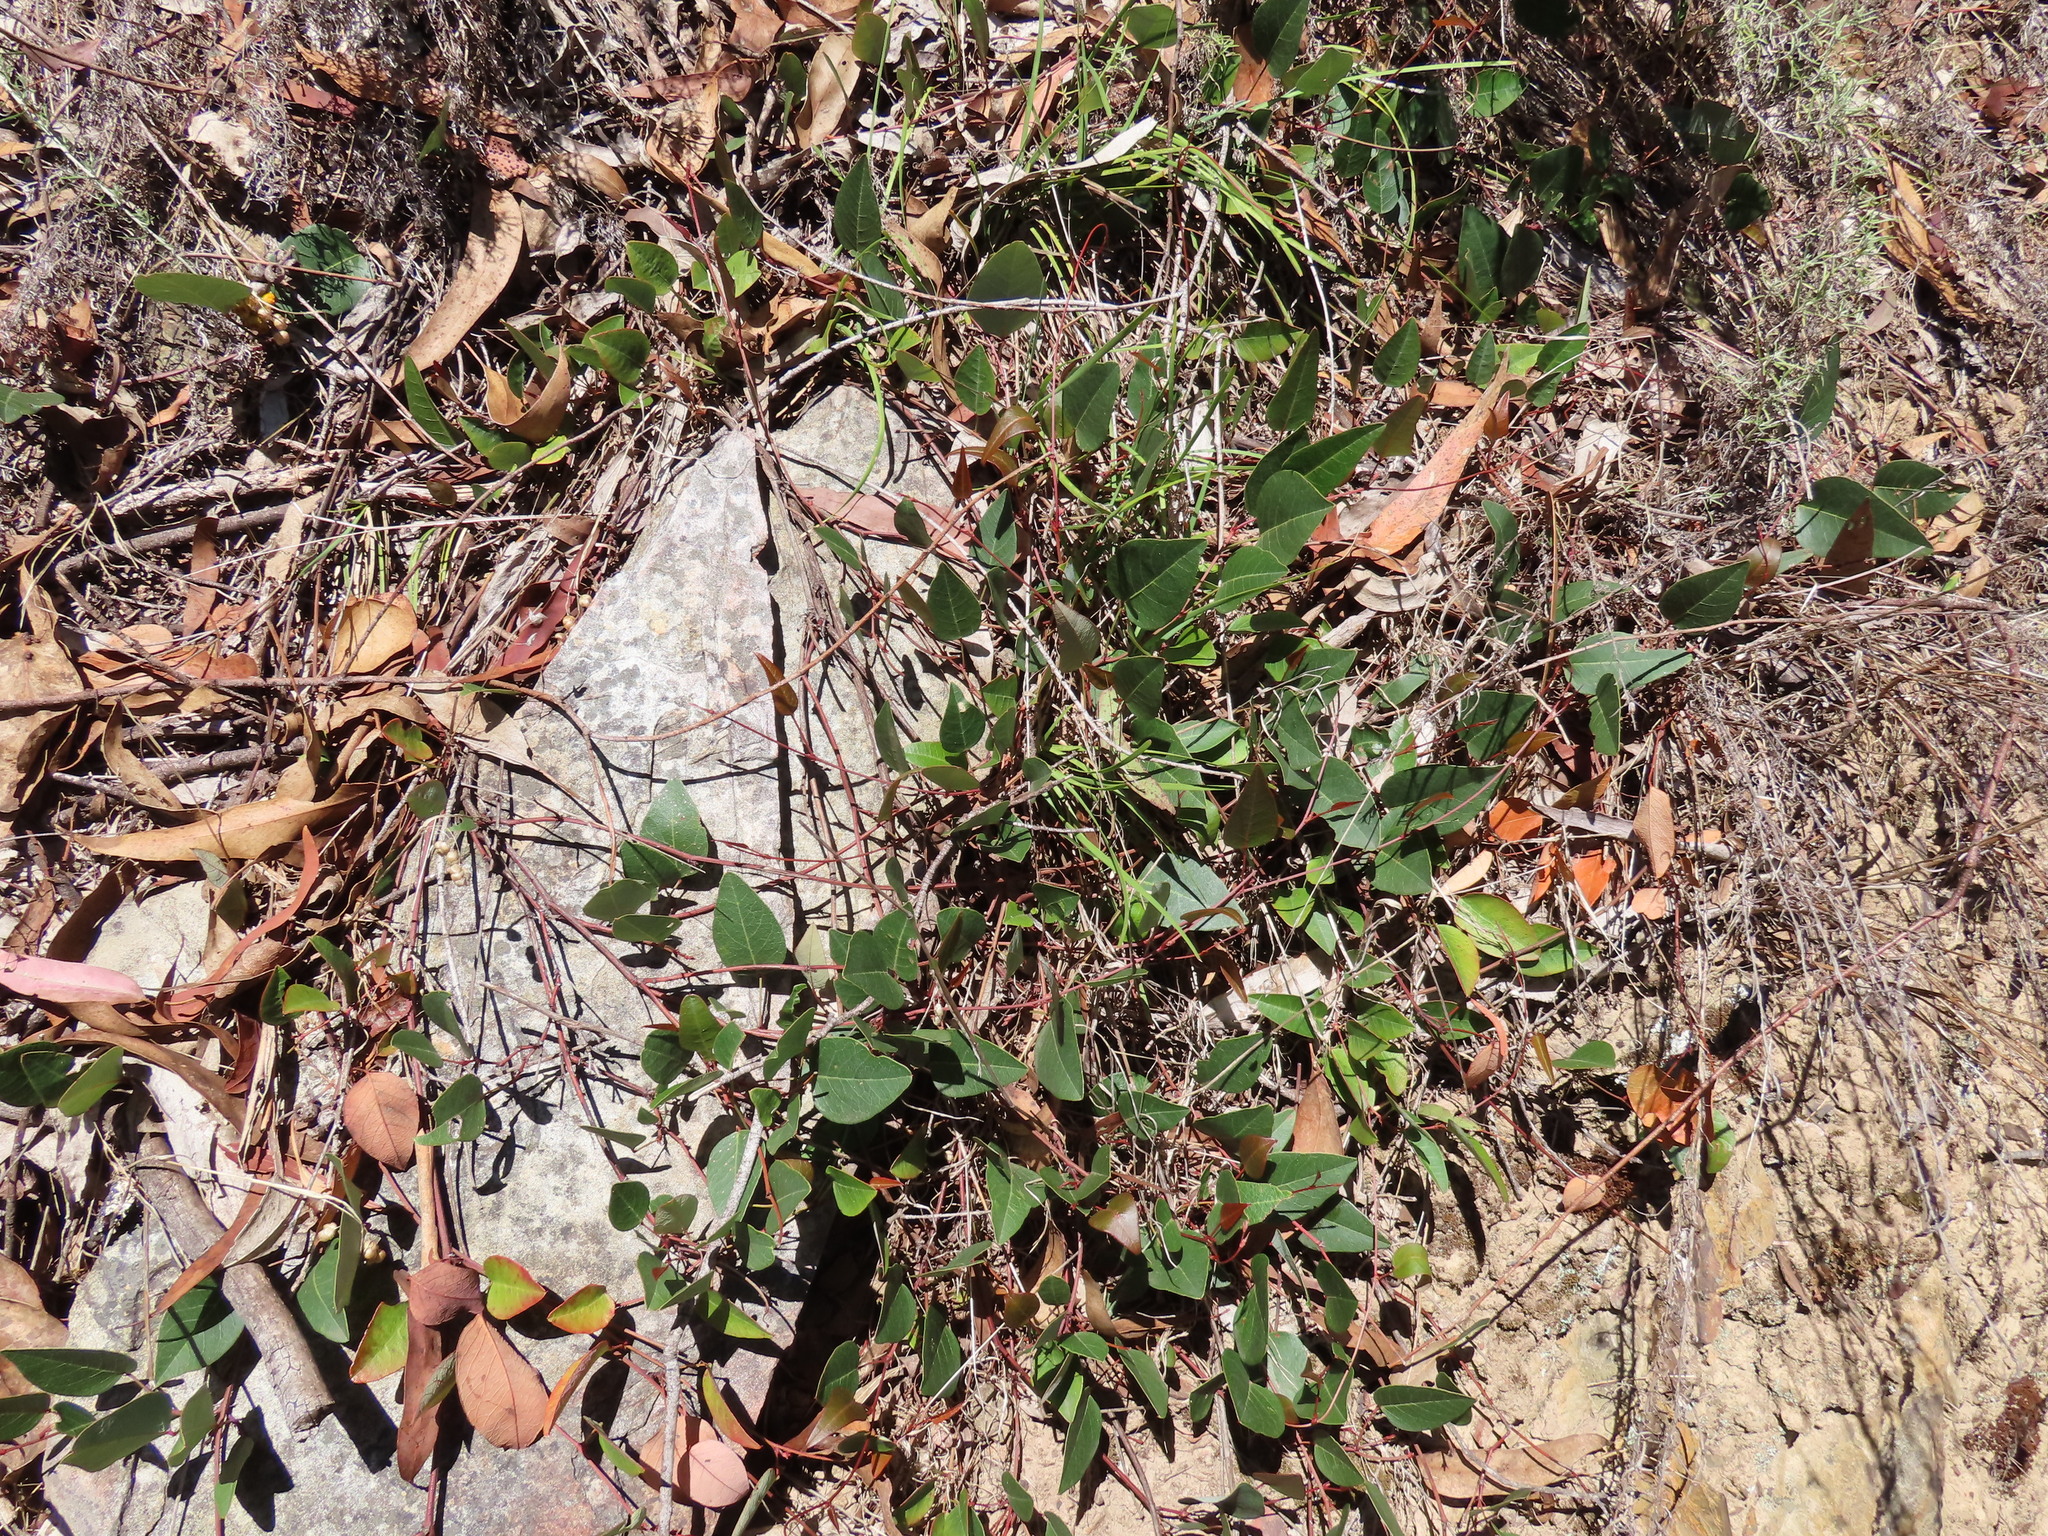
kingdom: Plantae
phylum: Tracheophyta
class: Magnoliopsida
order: Fabales
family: Fabaceae
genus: Hardenbergia
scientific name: Hardenbergia violacea
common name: Coral-pea
